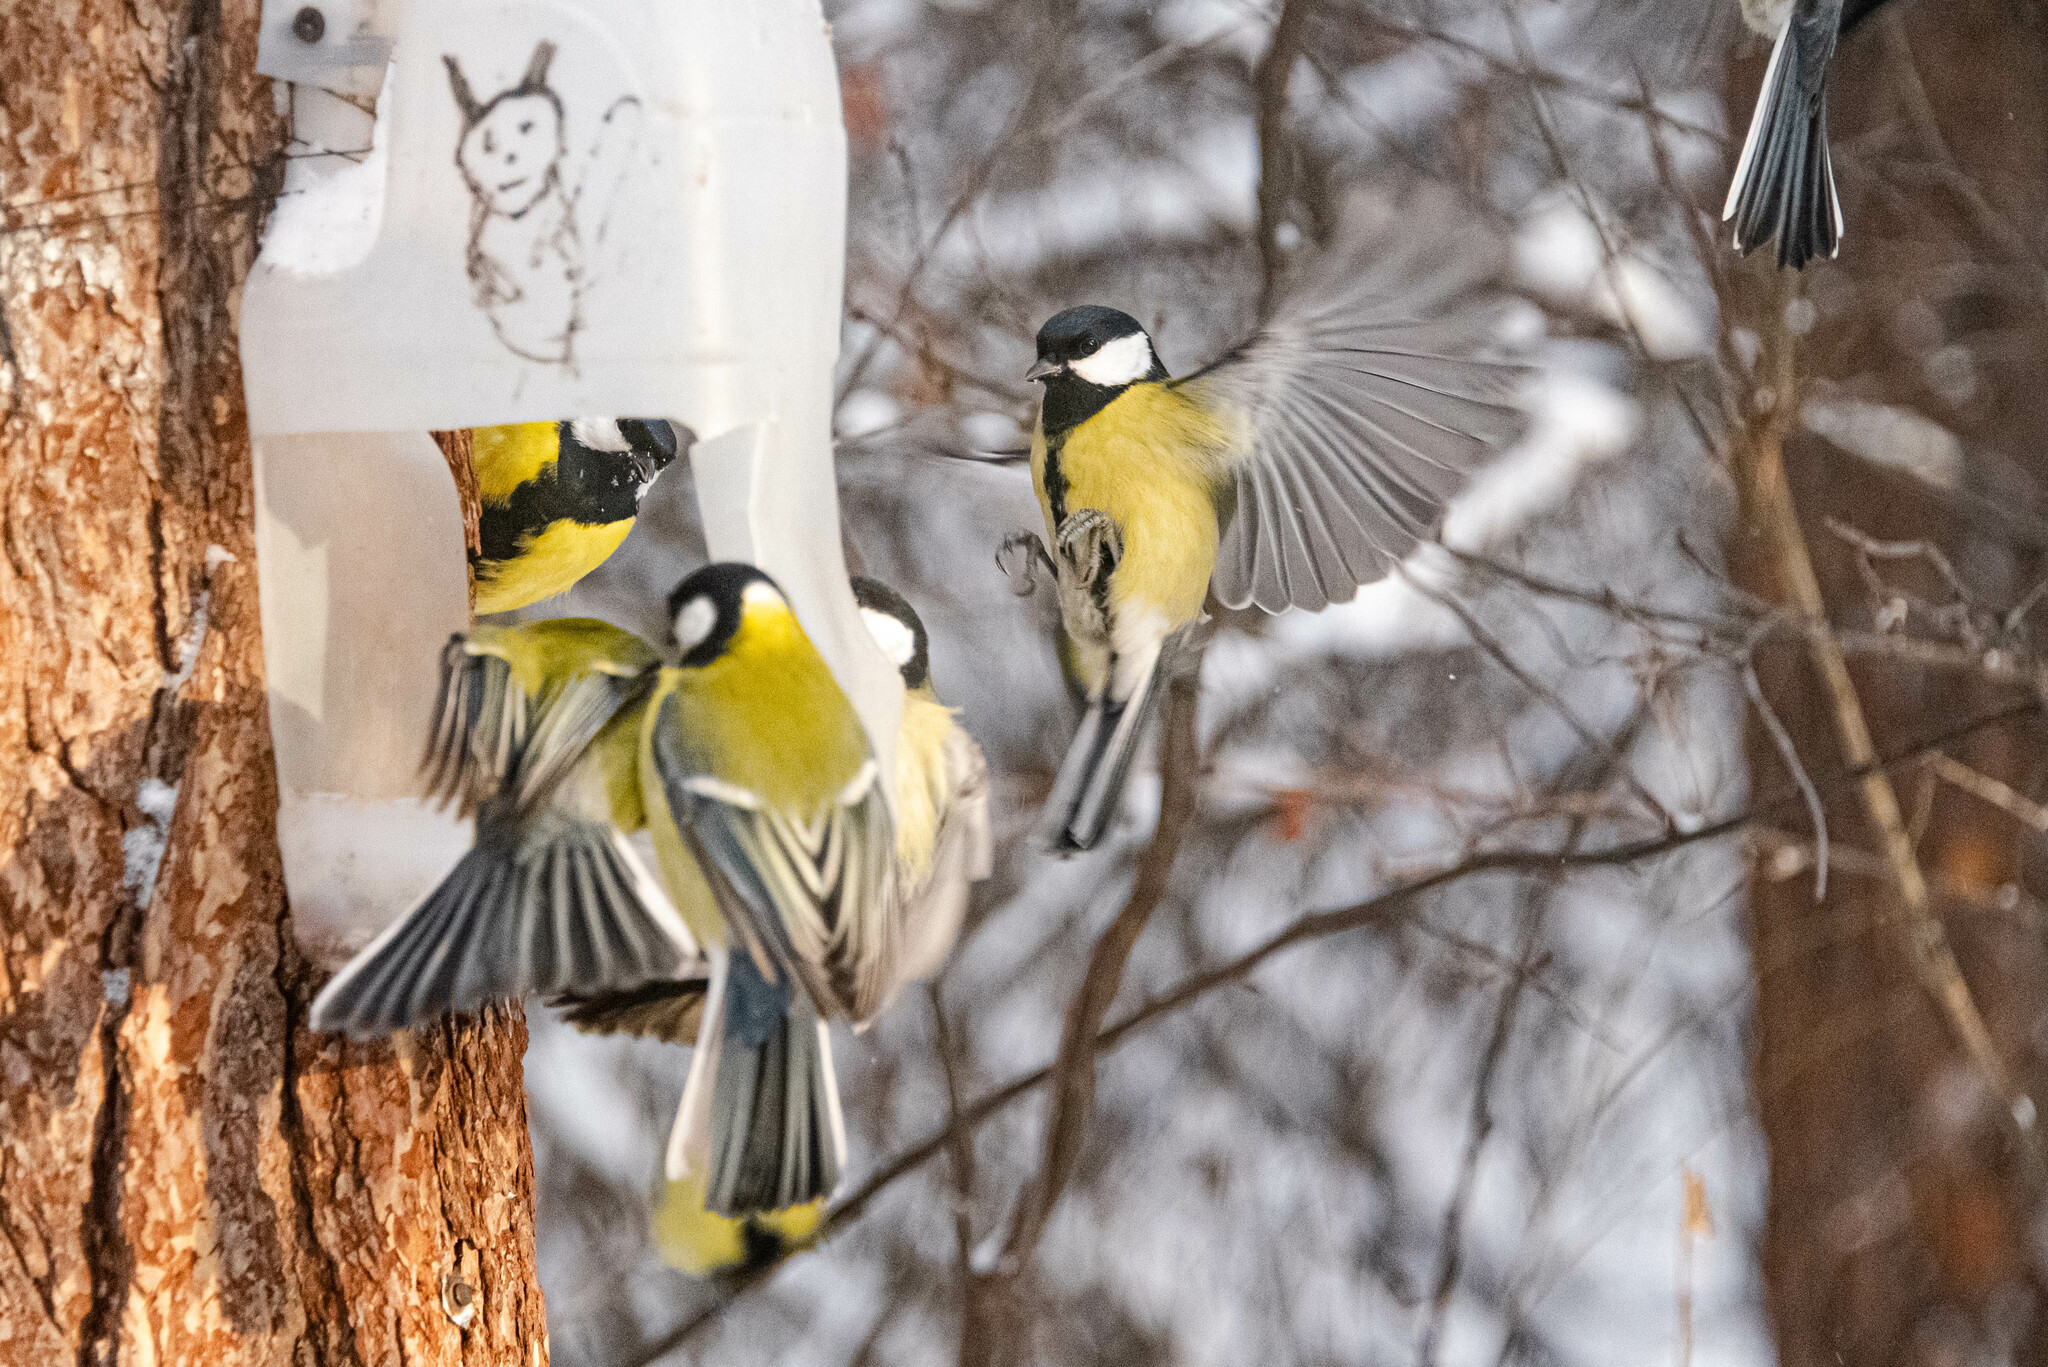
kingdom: Animalia
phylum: Chordata
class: Aves
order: Passeriformes
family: Paridae
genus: Parus
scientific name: Parus major
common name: Great tit
